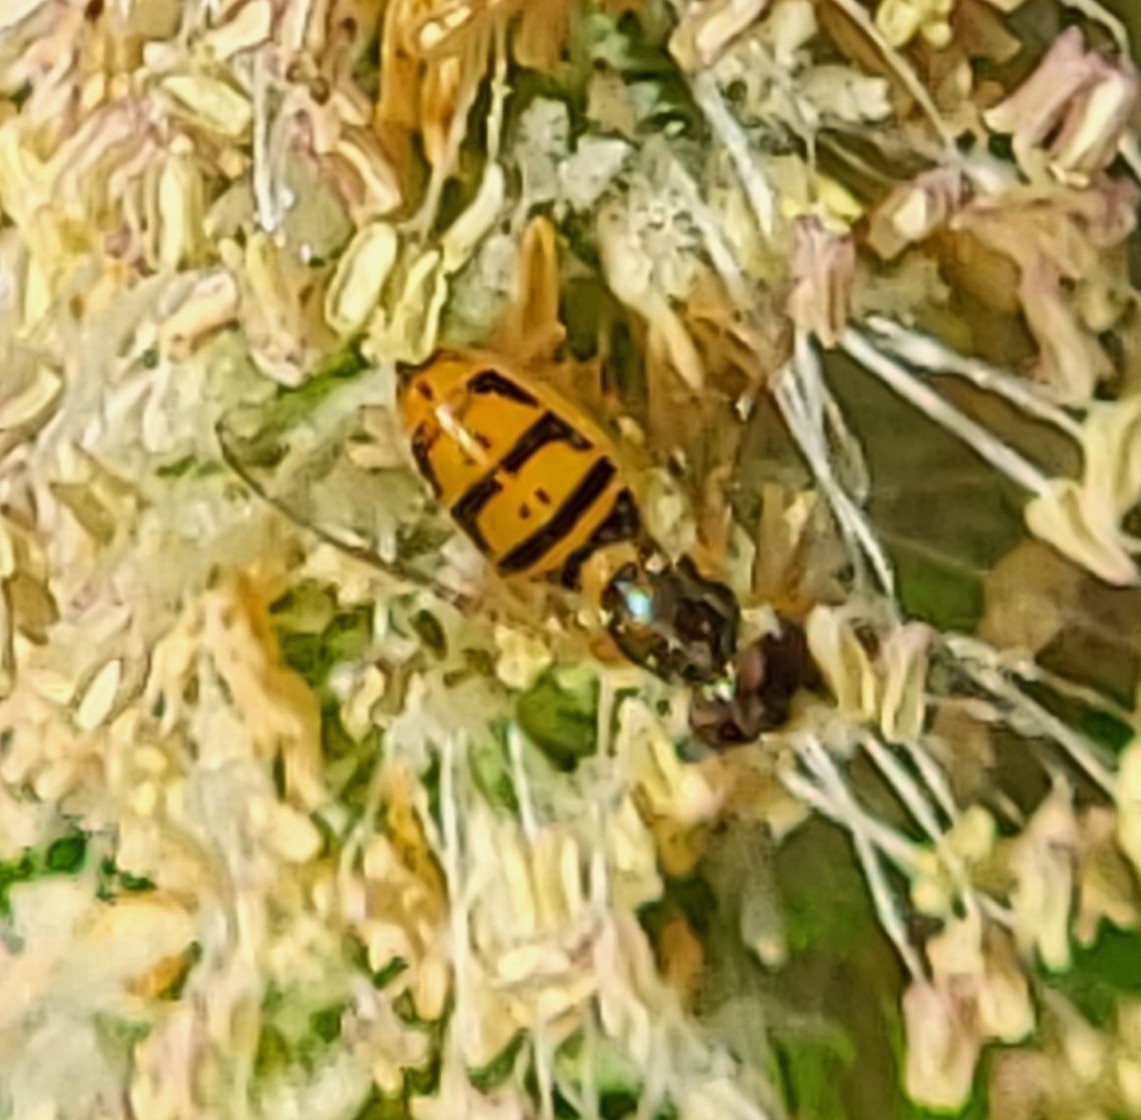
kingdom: Animalia
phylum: Arthropoda
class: Insecta
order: Diptera
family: Syrphidae
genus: Toxomerus
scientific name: Toxomerus marginatus
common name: Syrphid fly
